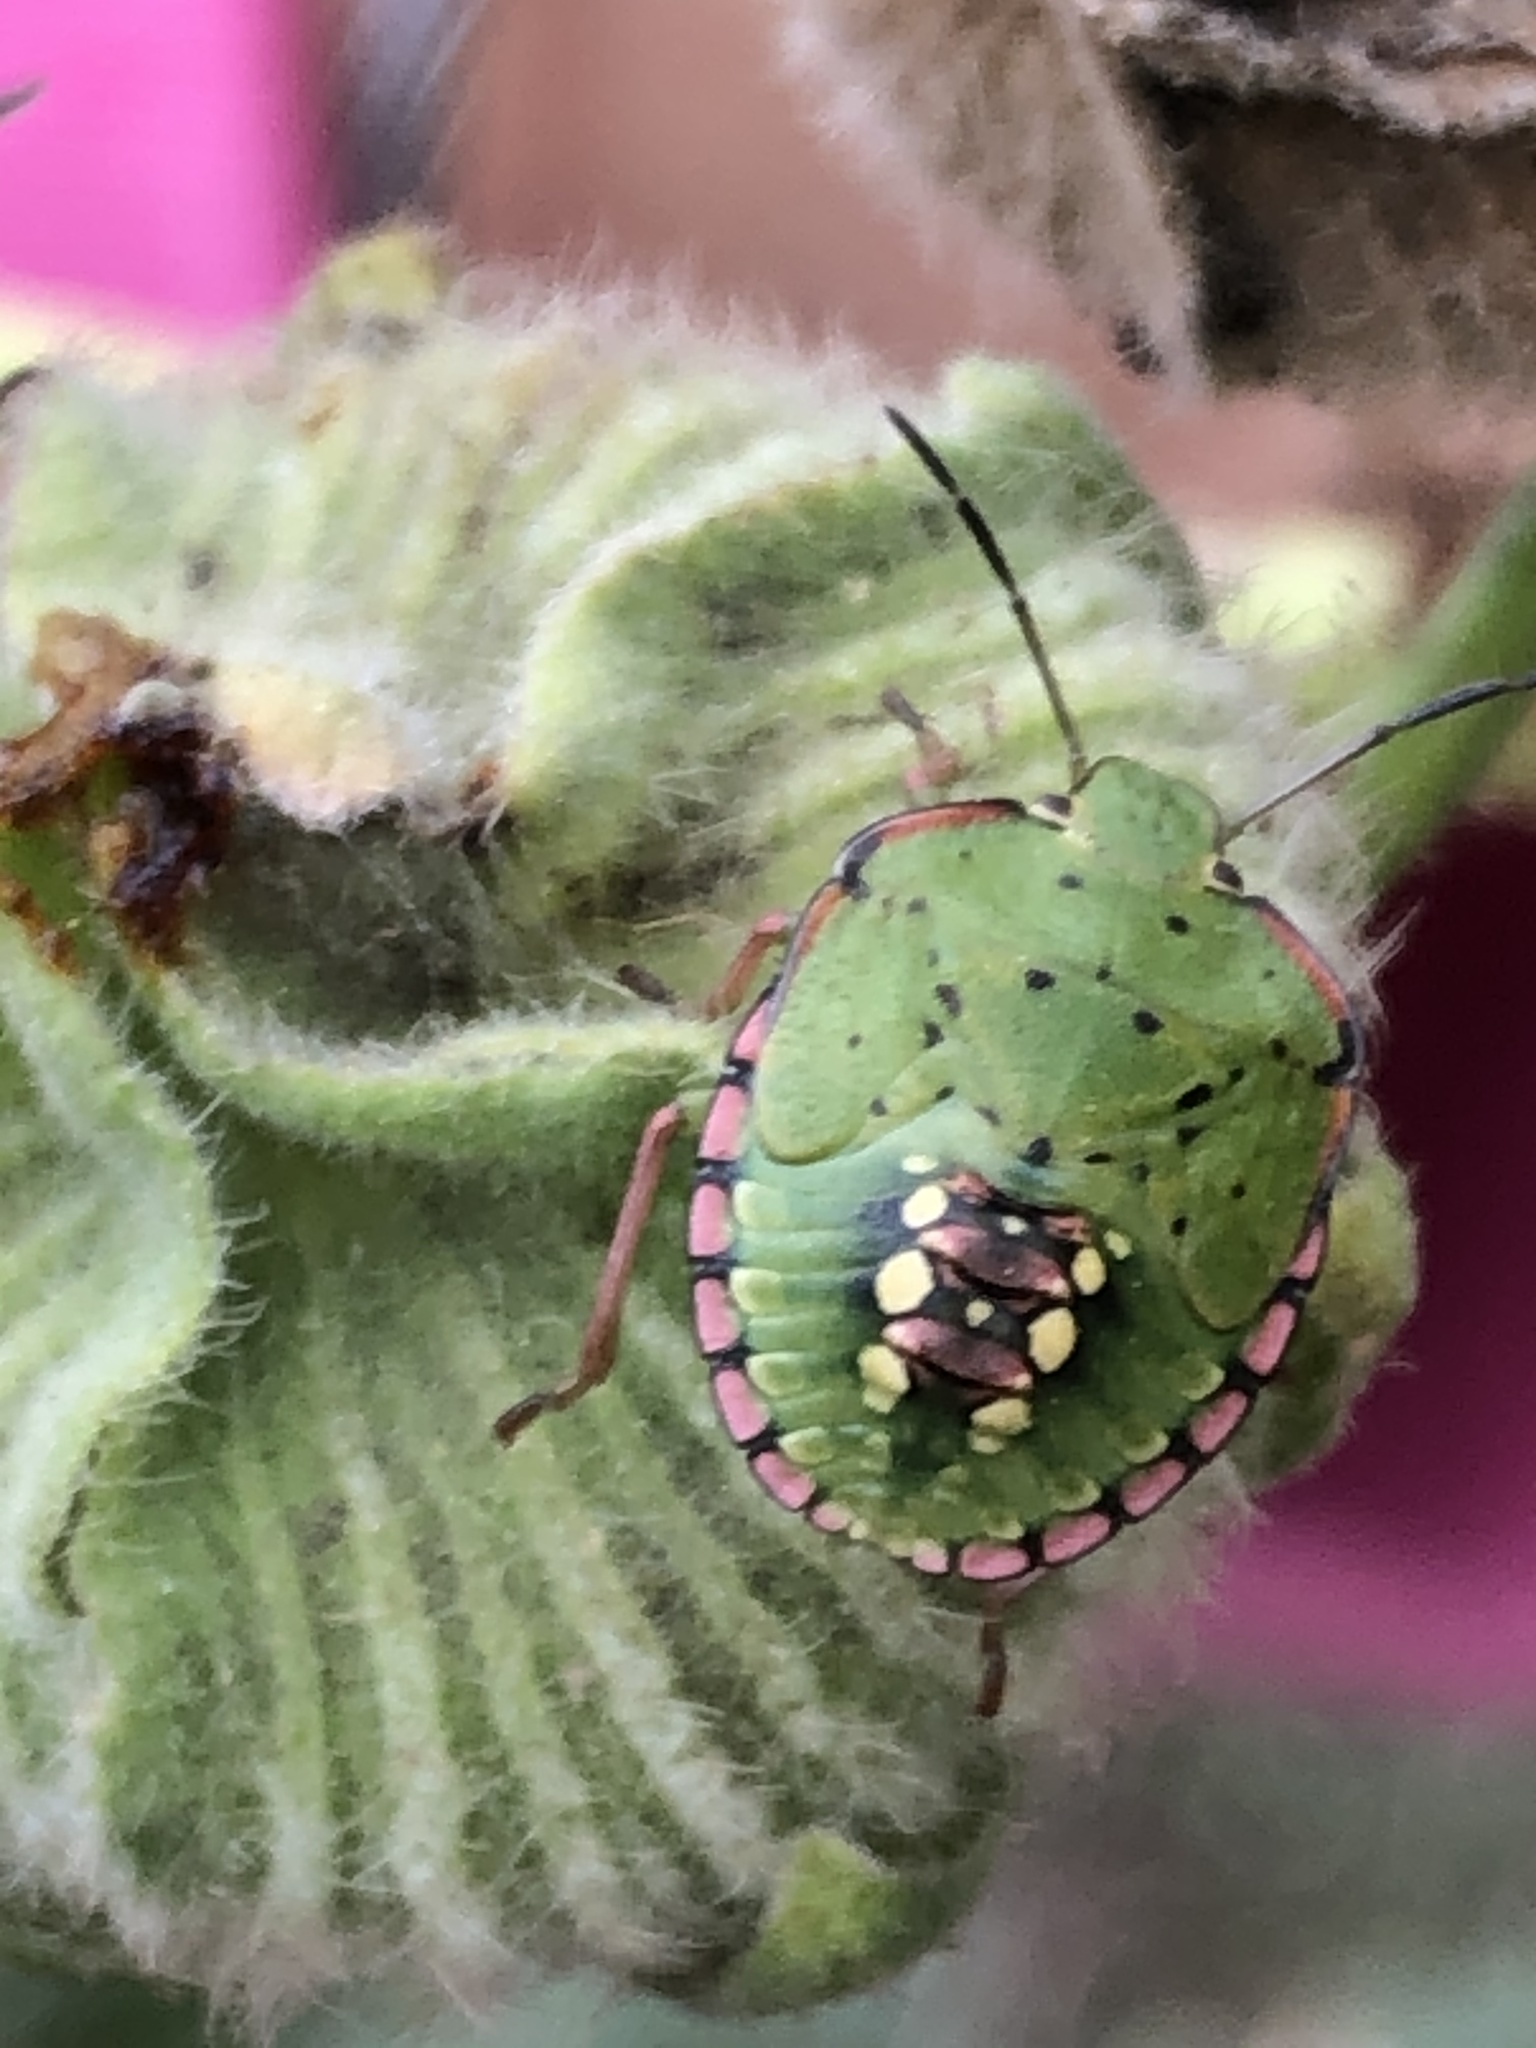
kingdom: Animalia
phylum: Arthropoda
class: Insecta
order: Hemiptera
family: Pentatomidae
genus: Nezara
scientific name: Nezara viridula
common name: Southern green stink bug
